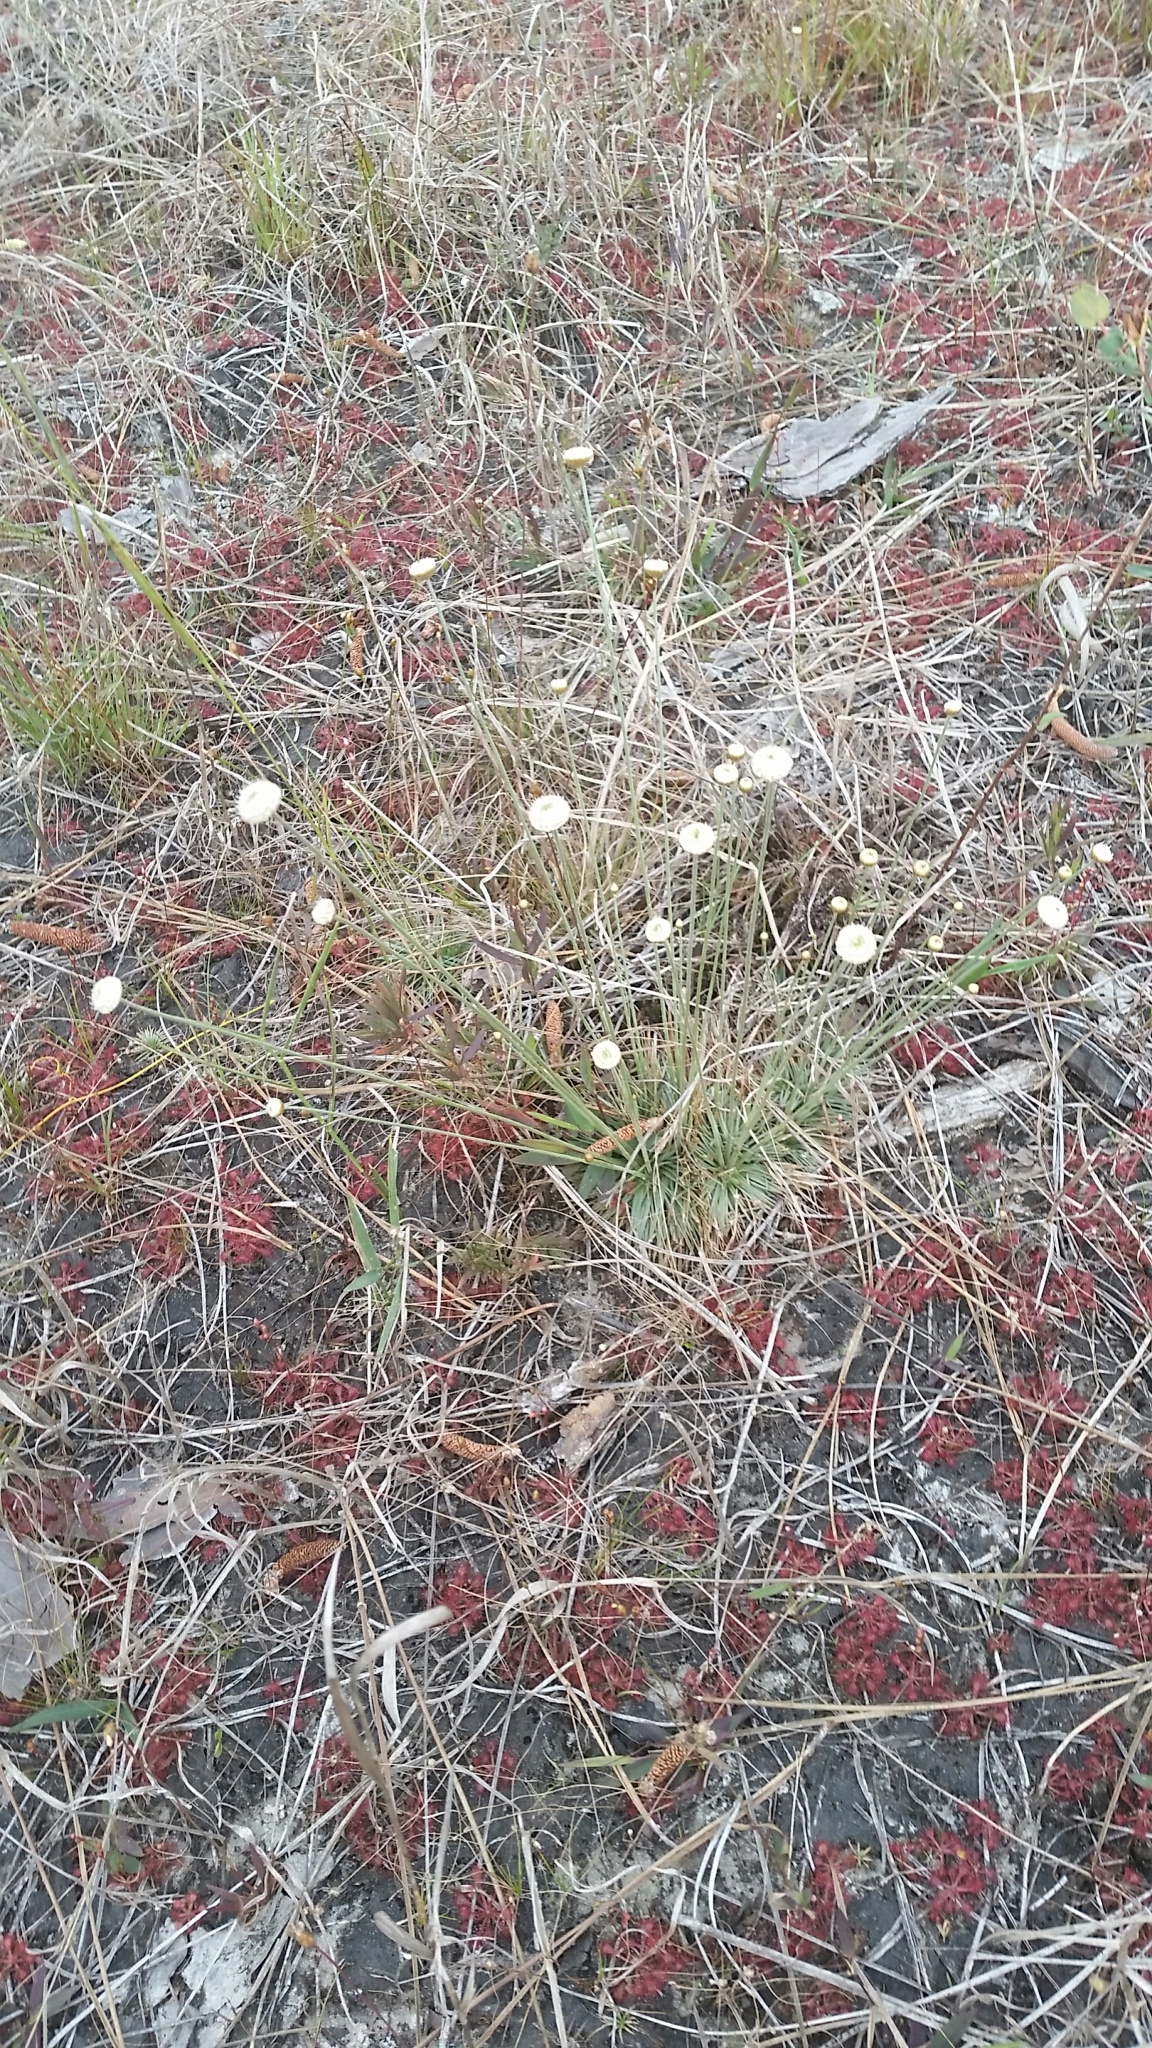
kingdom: Plantae
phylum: Tracheophyta
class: Liliopsida
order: Poales
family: Eriocaulaceae
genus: Syngonanthus
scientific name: Syngonanthus flavidulus
